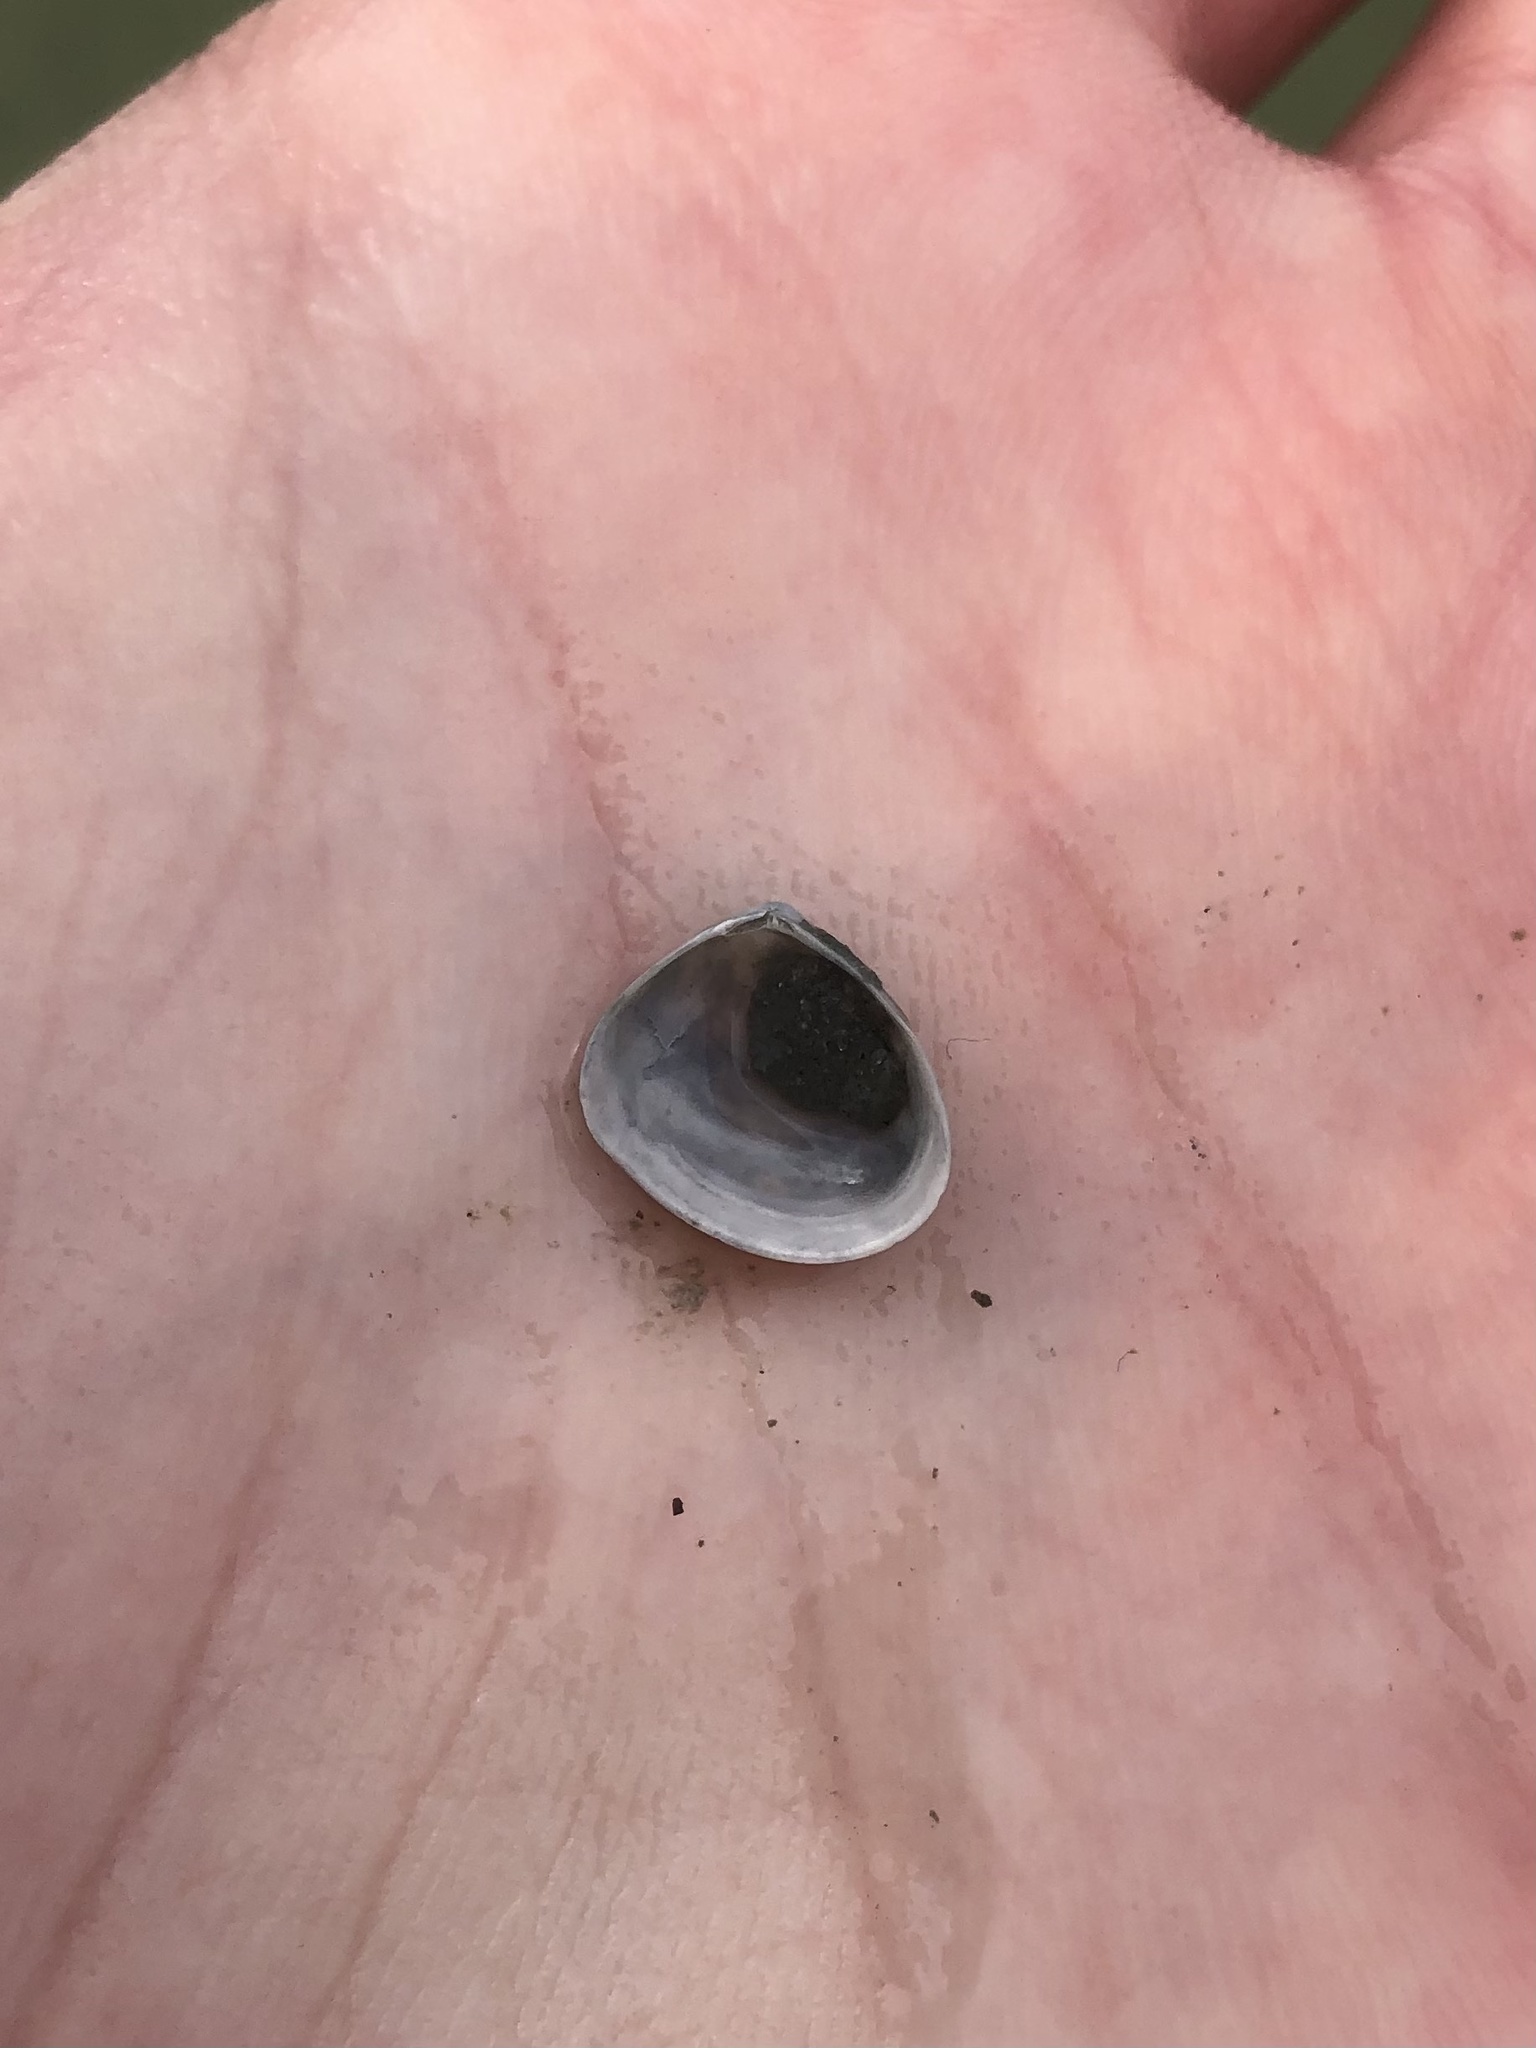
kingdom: Animalia
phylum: Mollusca
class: Bivalvia
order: Cardiida
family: Semelidae
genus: Abra
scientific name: Abra aequalis
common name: Common atlantic abra
